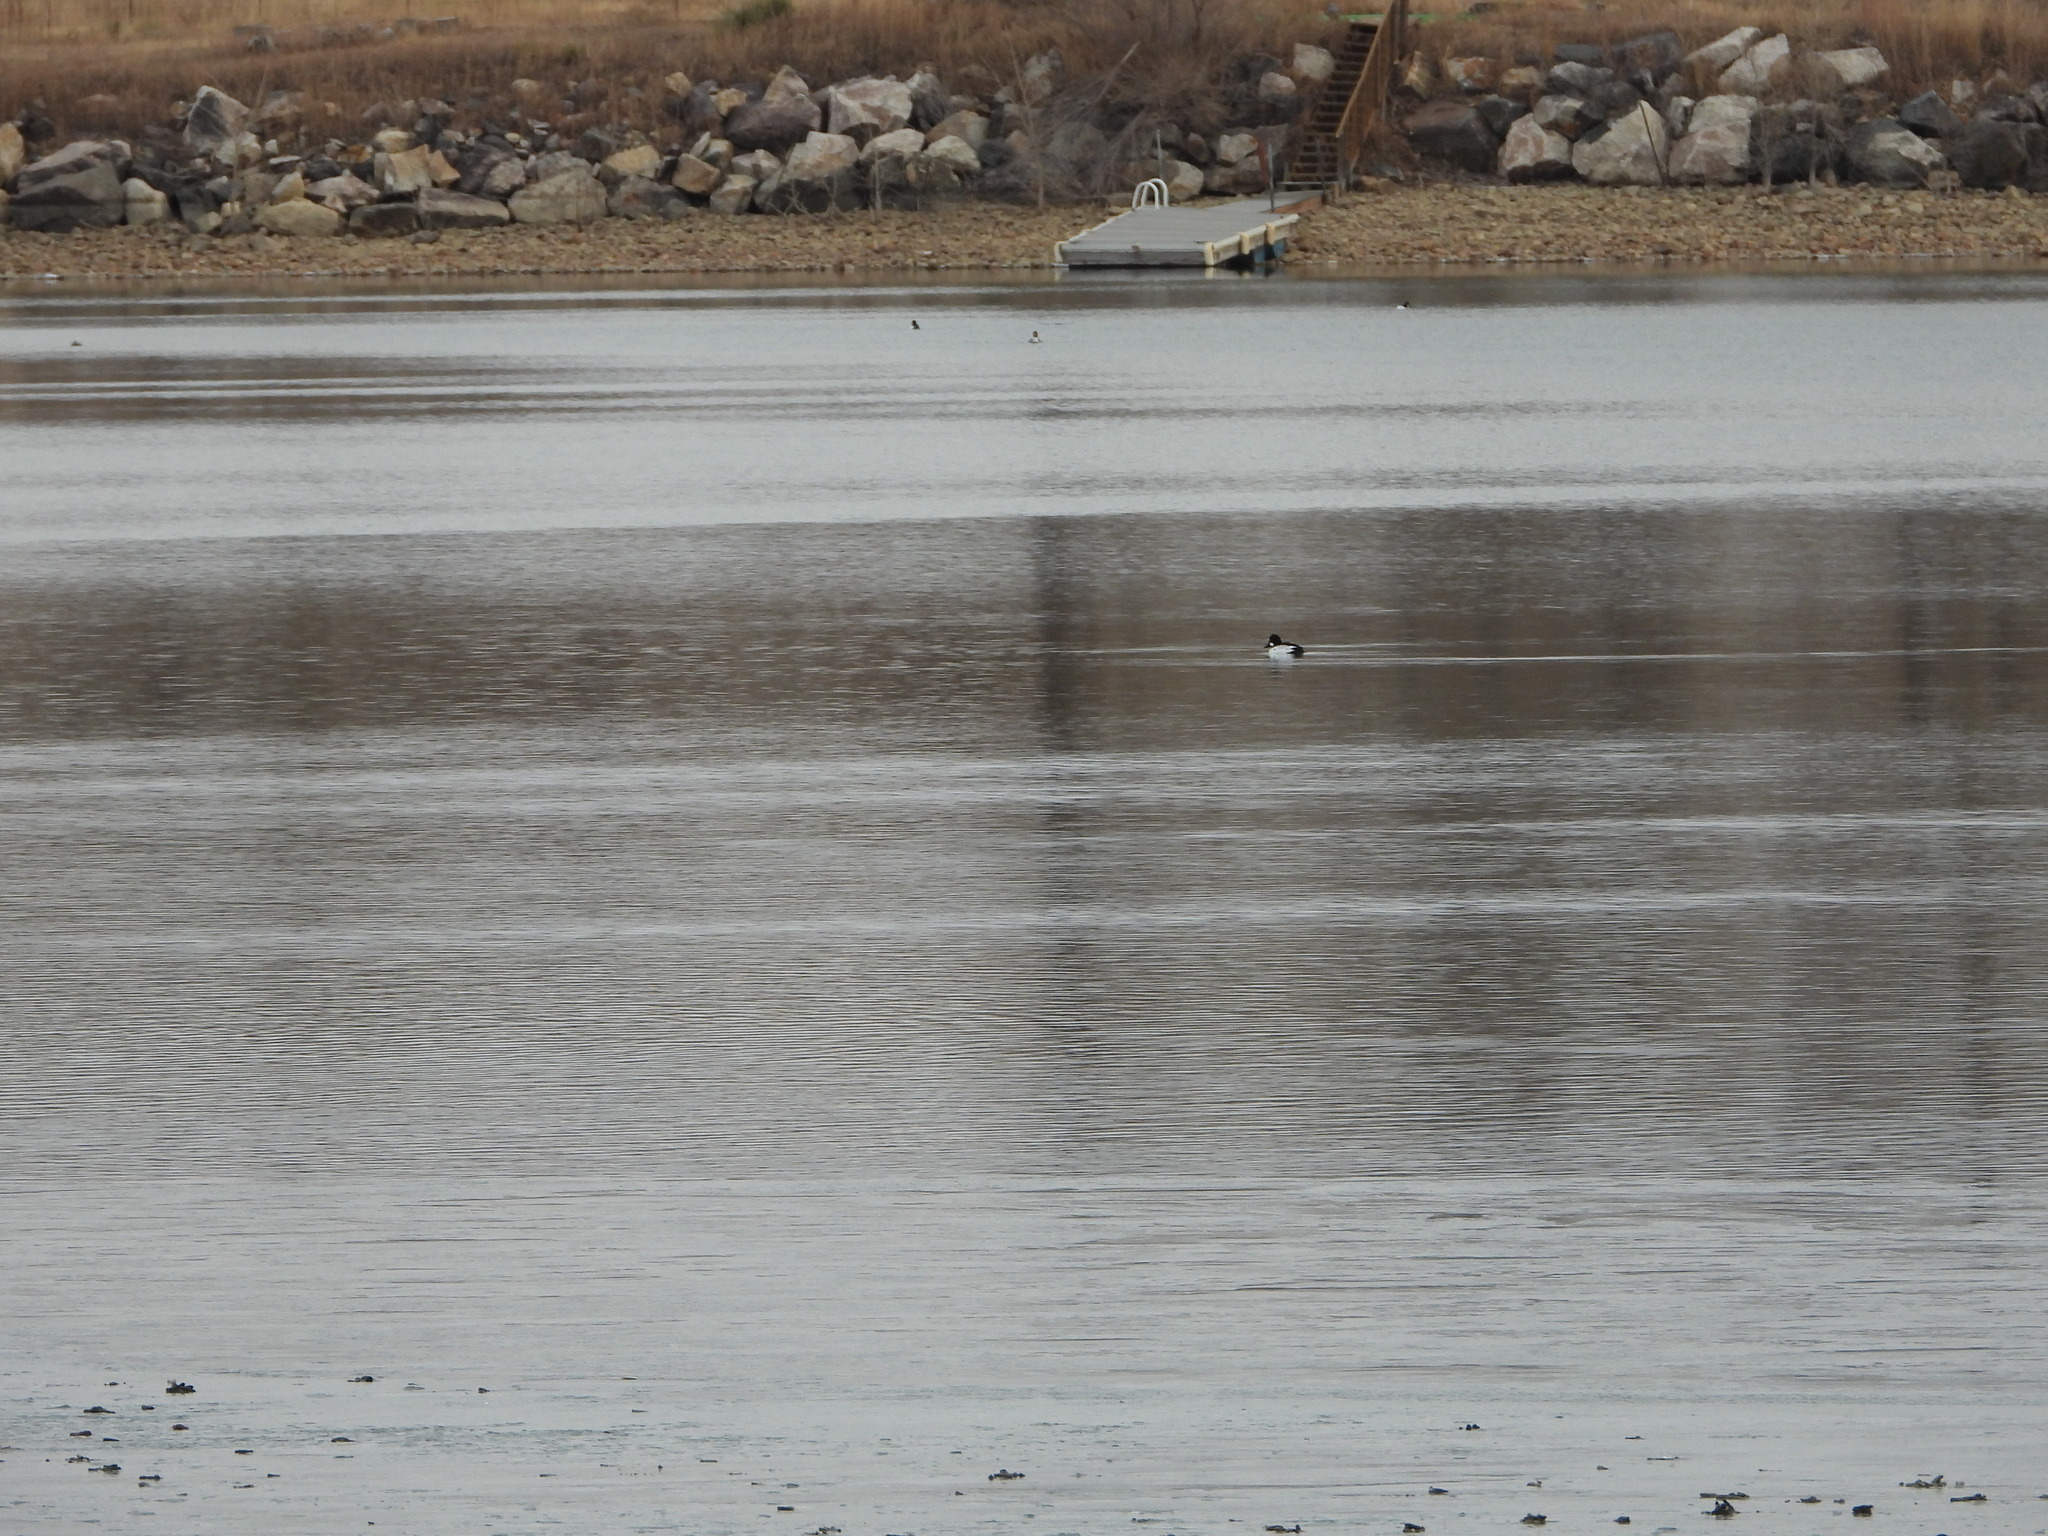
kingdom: Animalia
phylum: Chordata
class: Aves
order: Anseriformes
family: Anatidae
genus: Bucephala
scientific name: Bucephala clangula
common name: Common goldeneye
